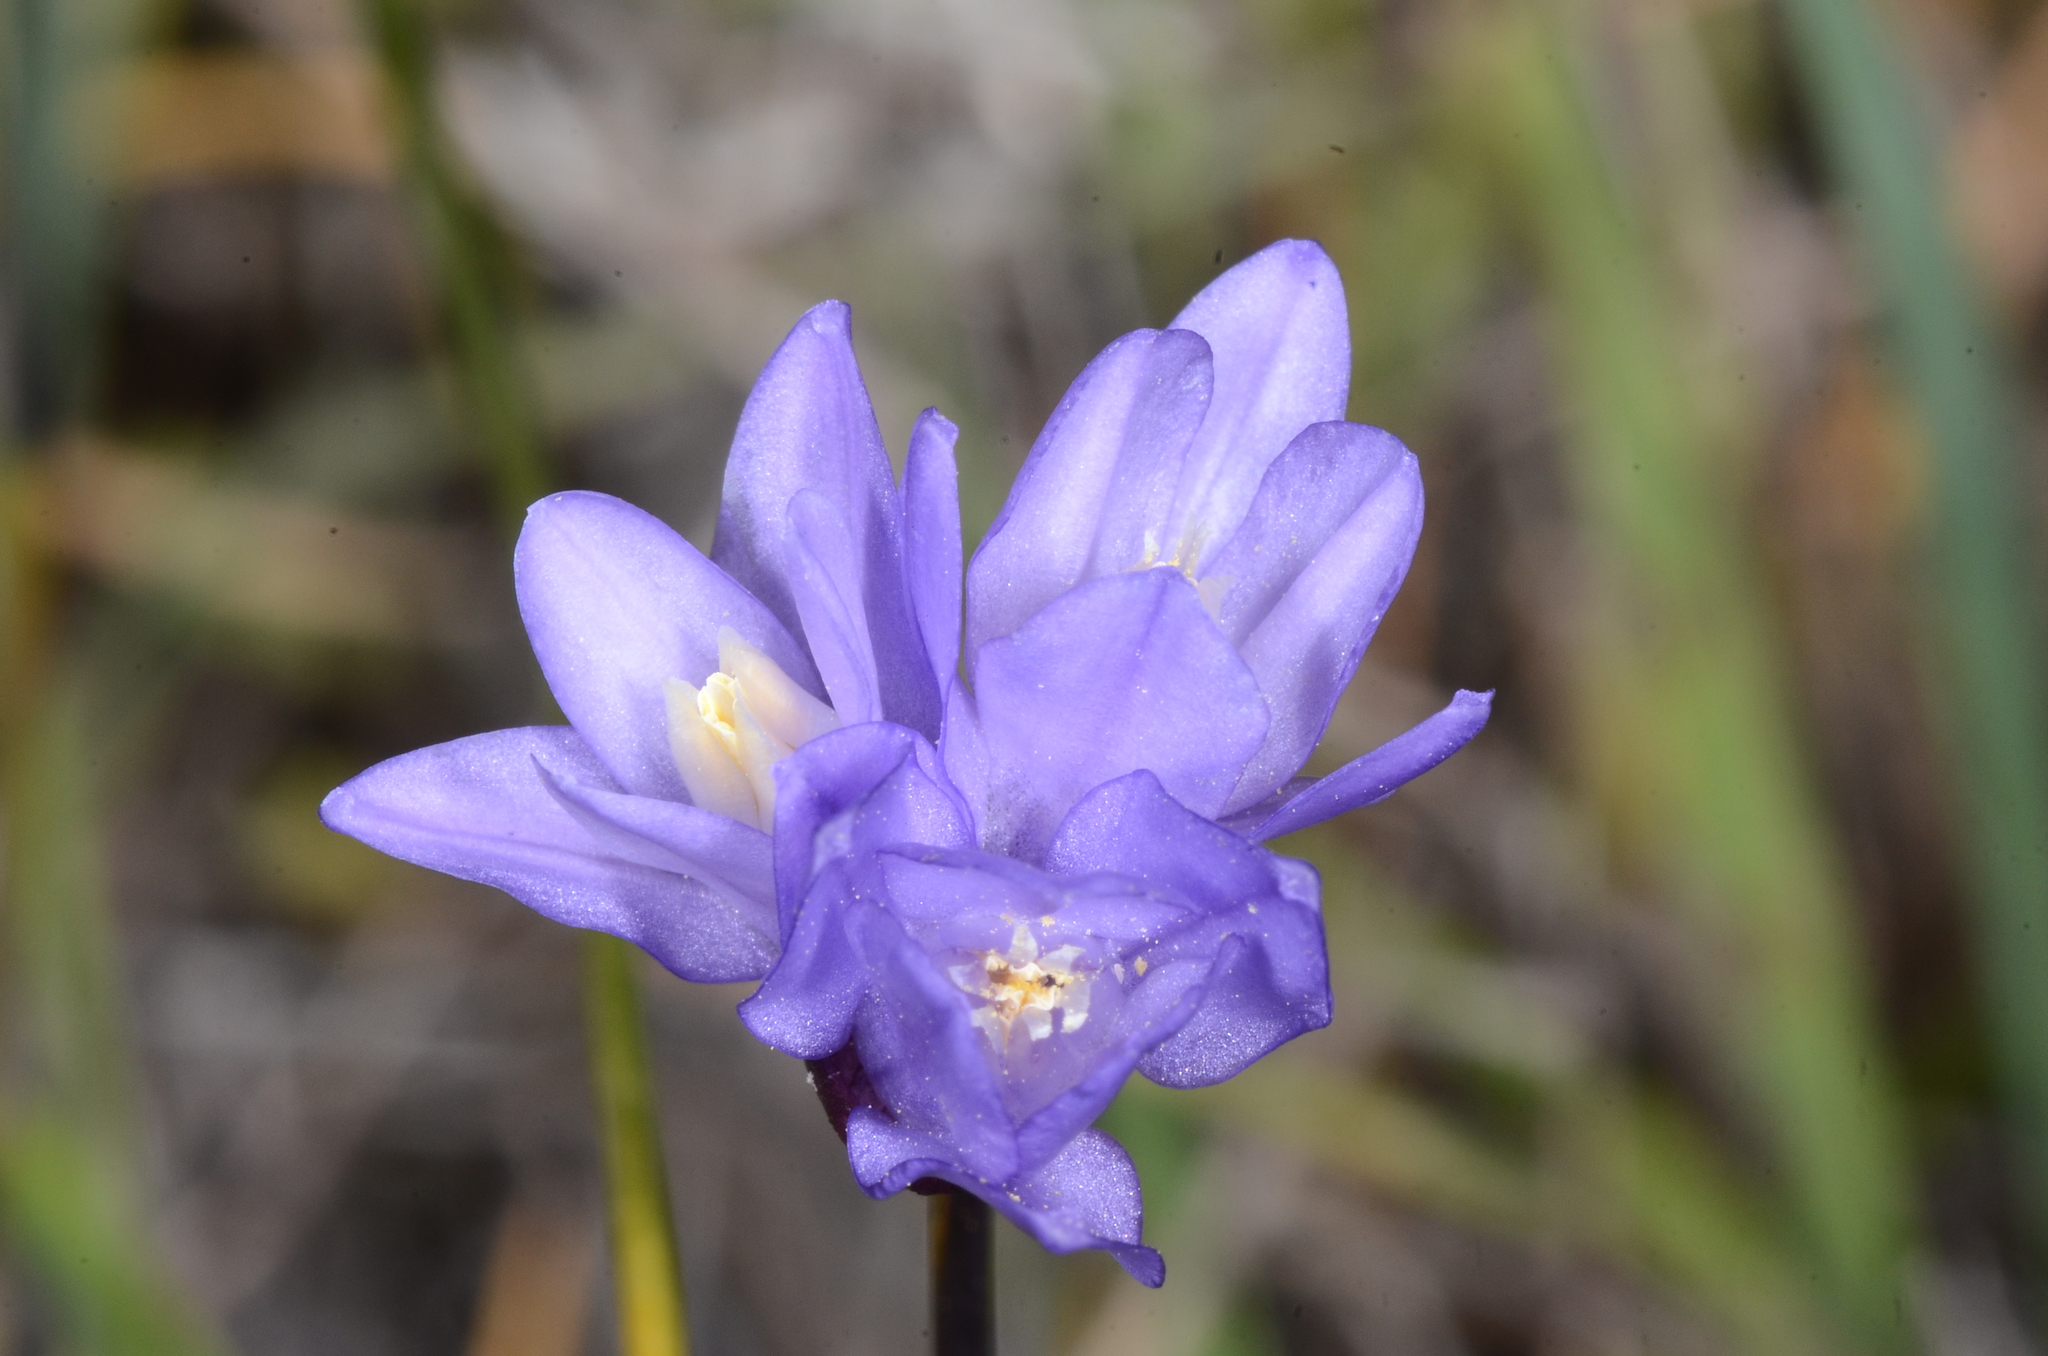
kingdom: Plantae
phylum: Tracheophyta
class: Liliopsida
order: Asparagales
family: Asparagaceae
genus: Dipterostemon
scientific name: Dipterostemon capitatus
